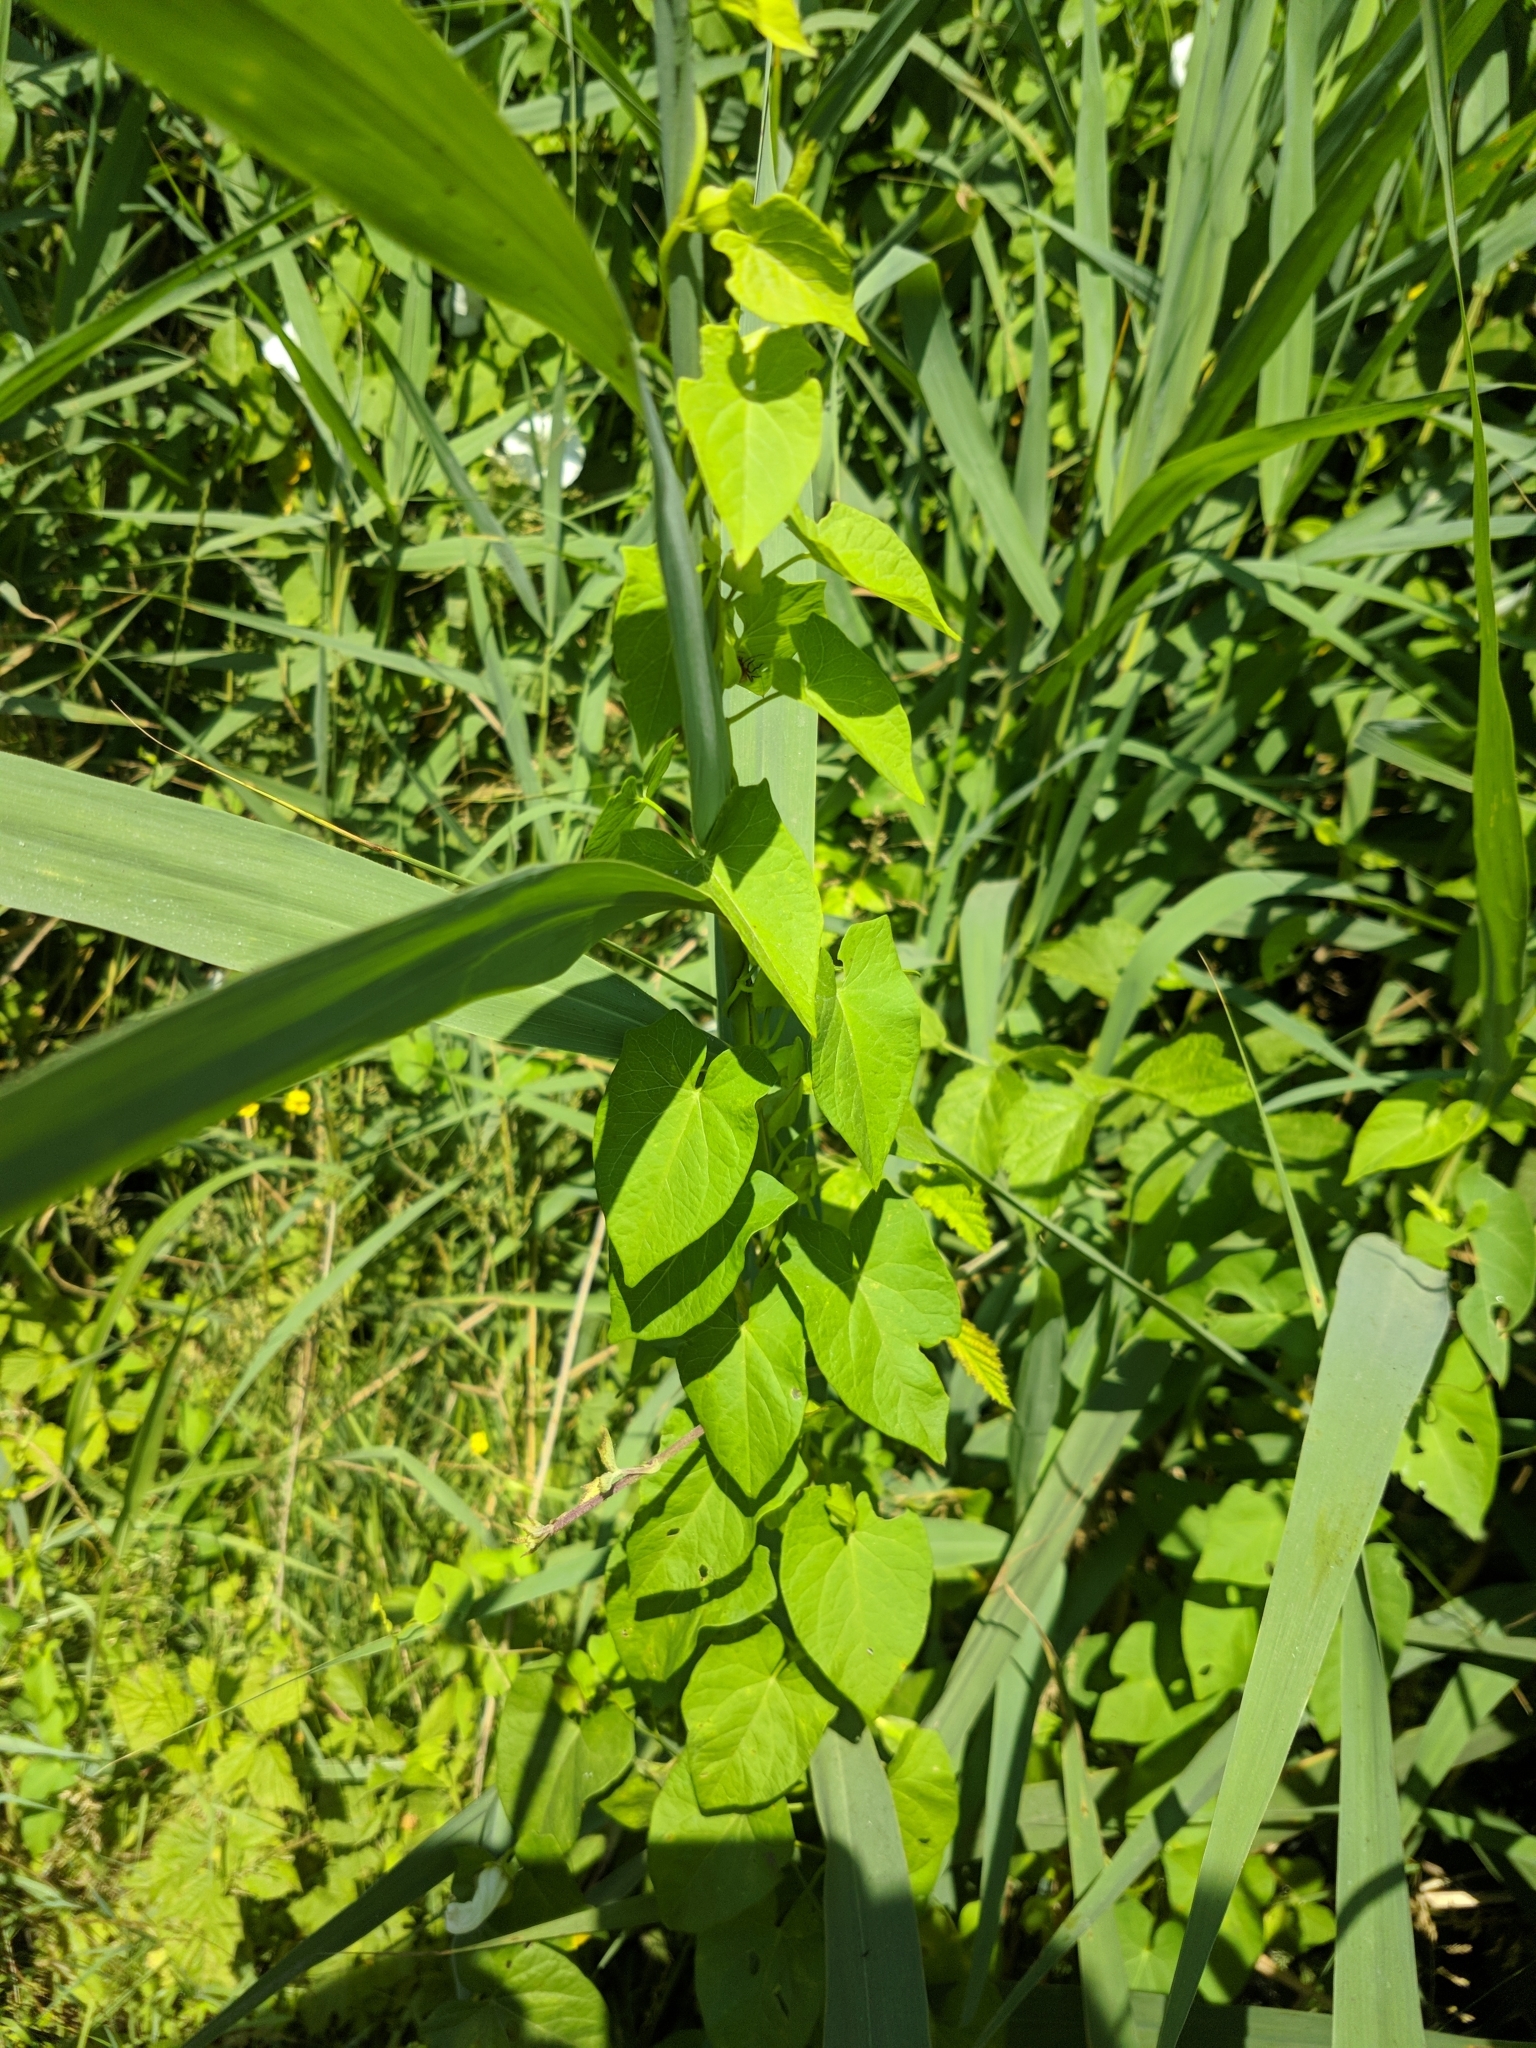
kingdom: Plantae
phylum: Tracheophyta
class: Magnoliopsida
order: Solanales
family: Convolvulaceae
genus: Calystegia
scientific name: Calystegia sepium
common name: Hedge bindweed
